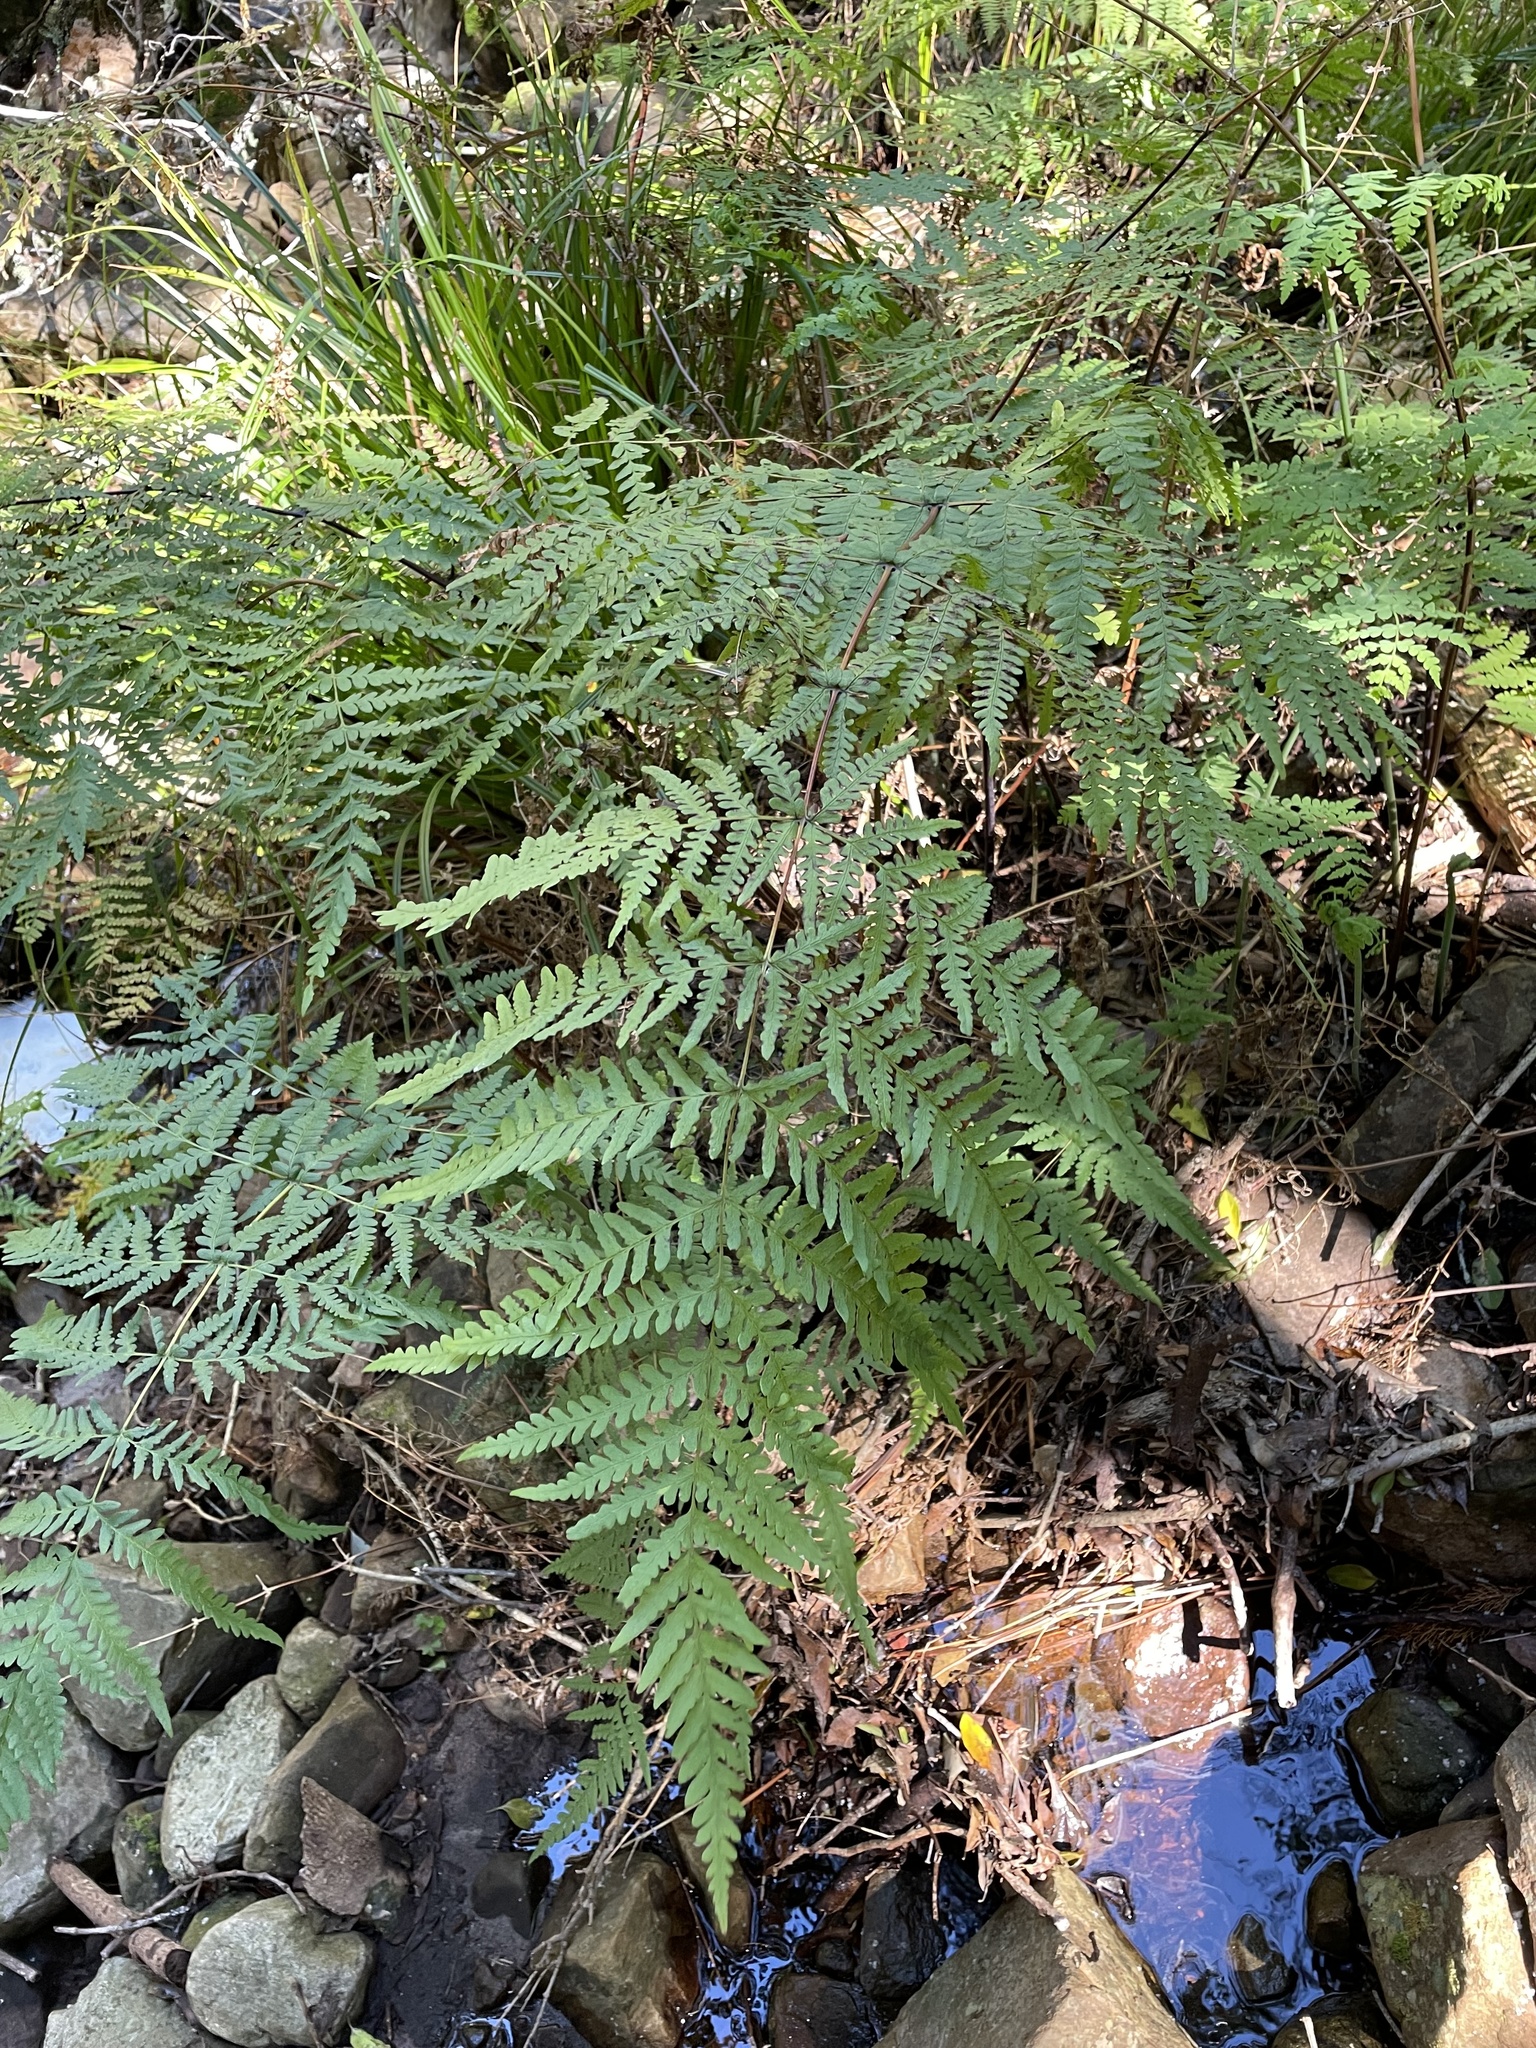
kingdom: Plantae
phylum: Tracheophyta
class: Polypodiopsida
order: Polypodiales
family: Dennstaedtiaceae
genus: Histiopteris
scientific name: Histiopteris incisa
